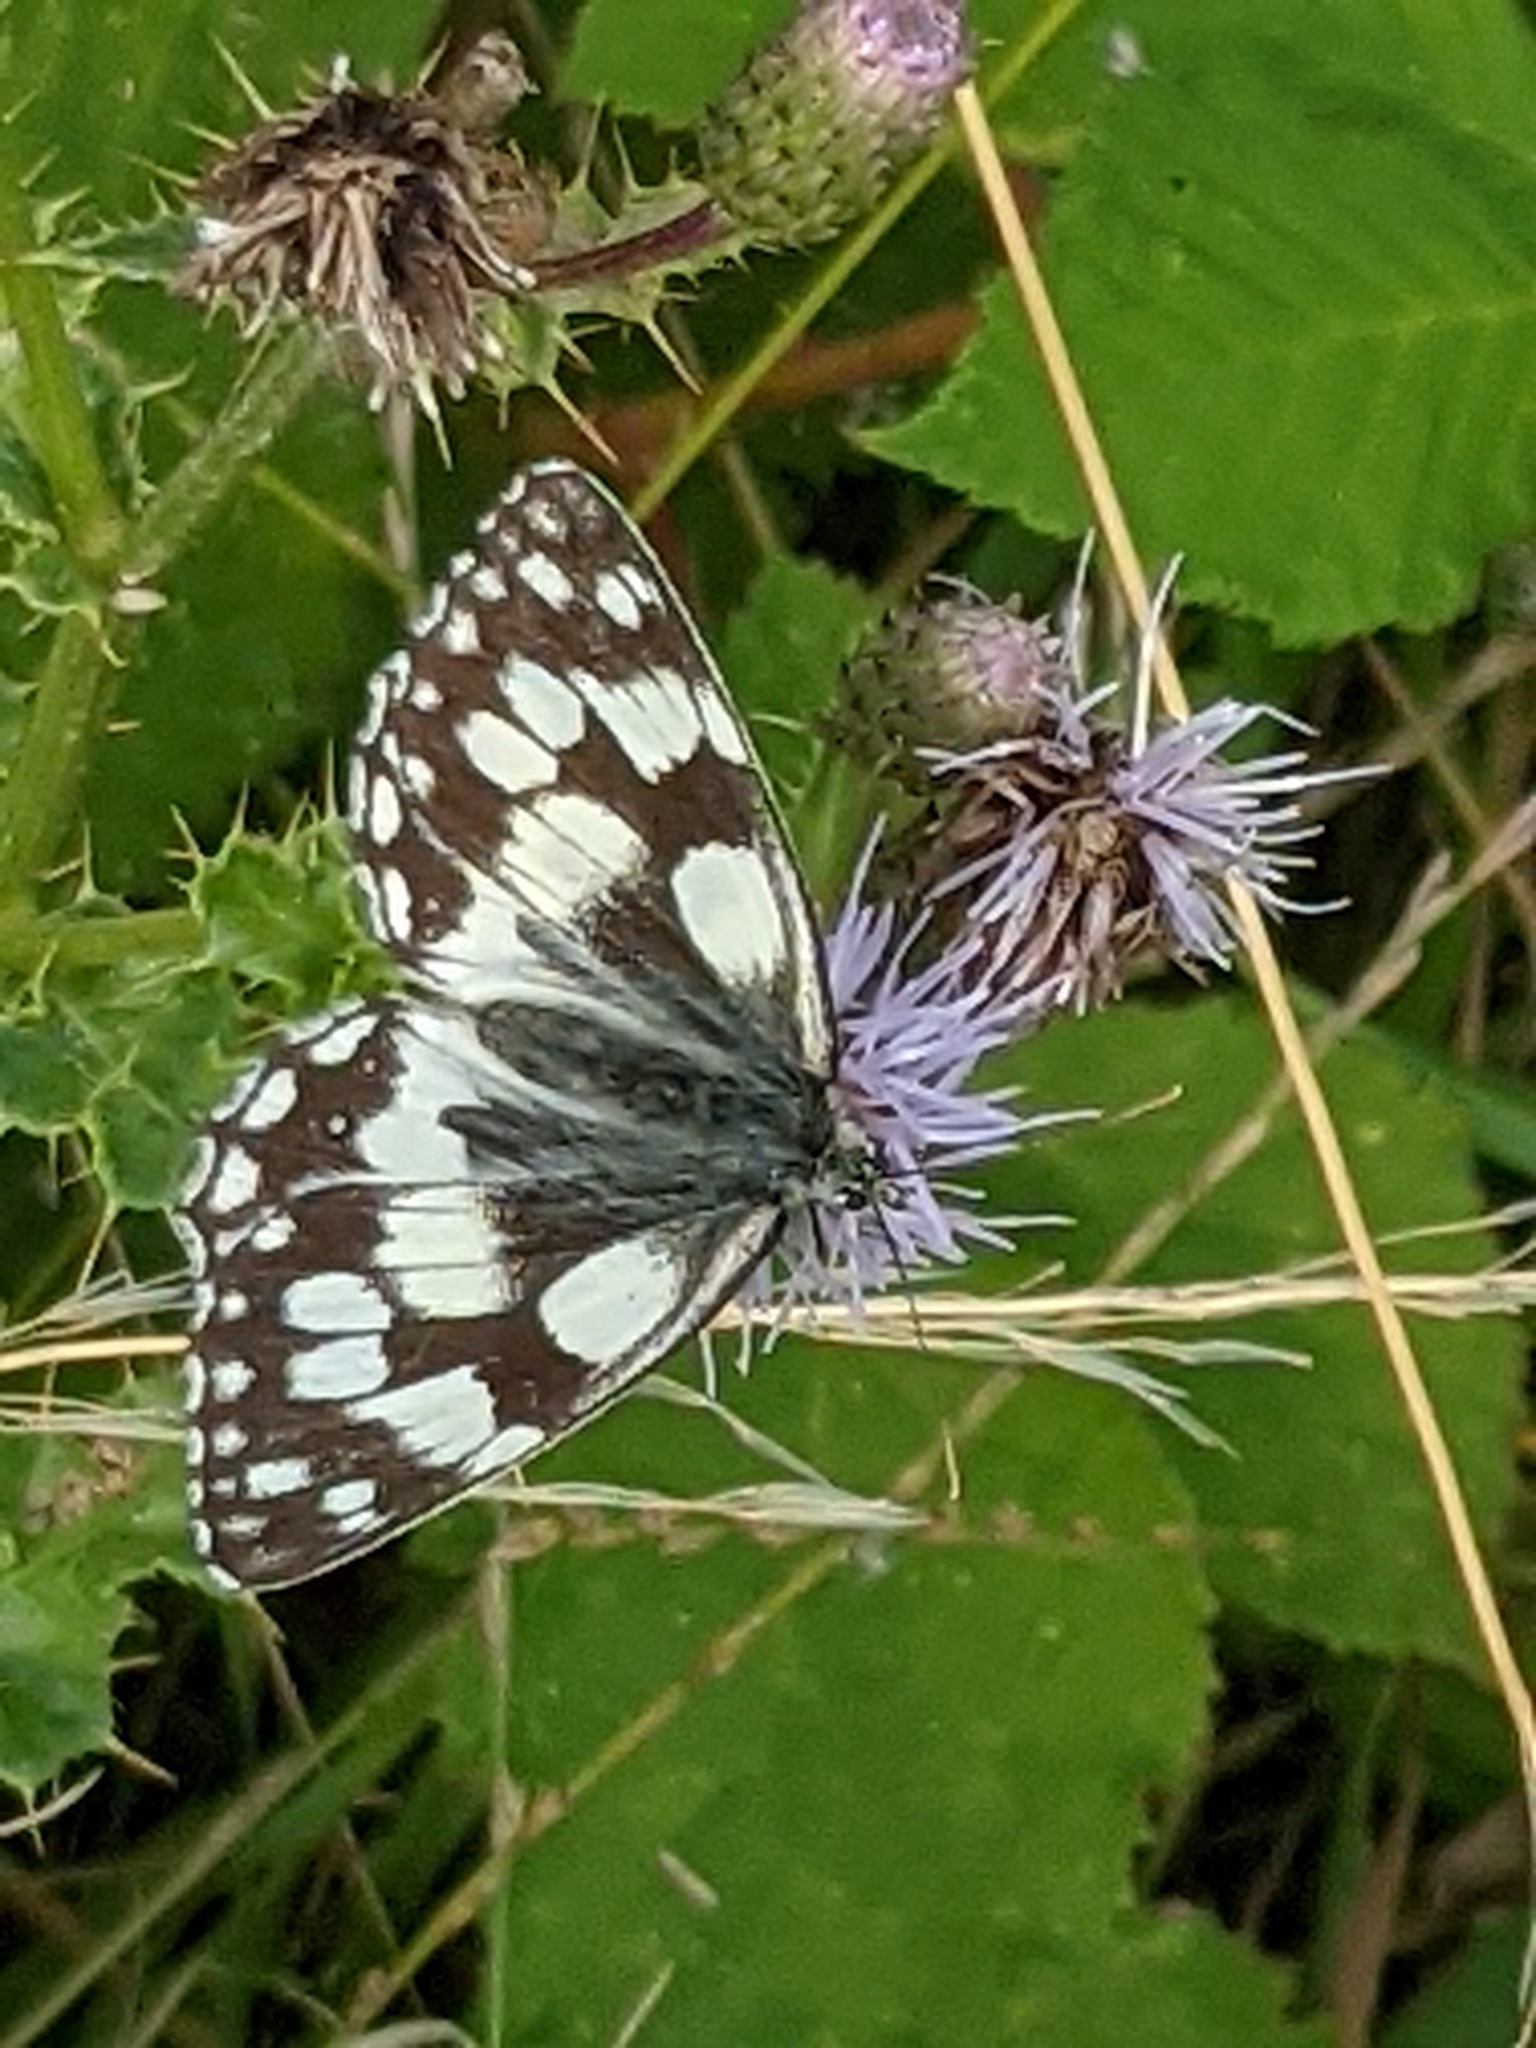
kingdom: Animalia
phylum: Arthropoda
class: Insecta
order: Lepidoptera
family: Nymphalidae
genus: Melanargia
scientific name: Melanargia galathea
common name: Marbled white
